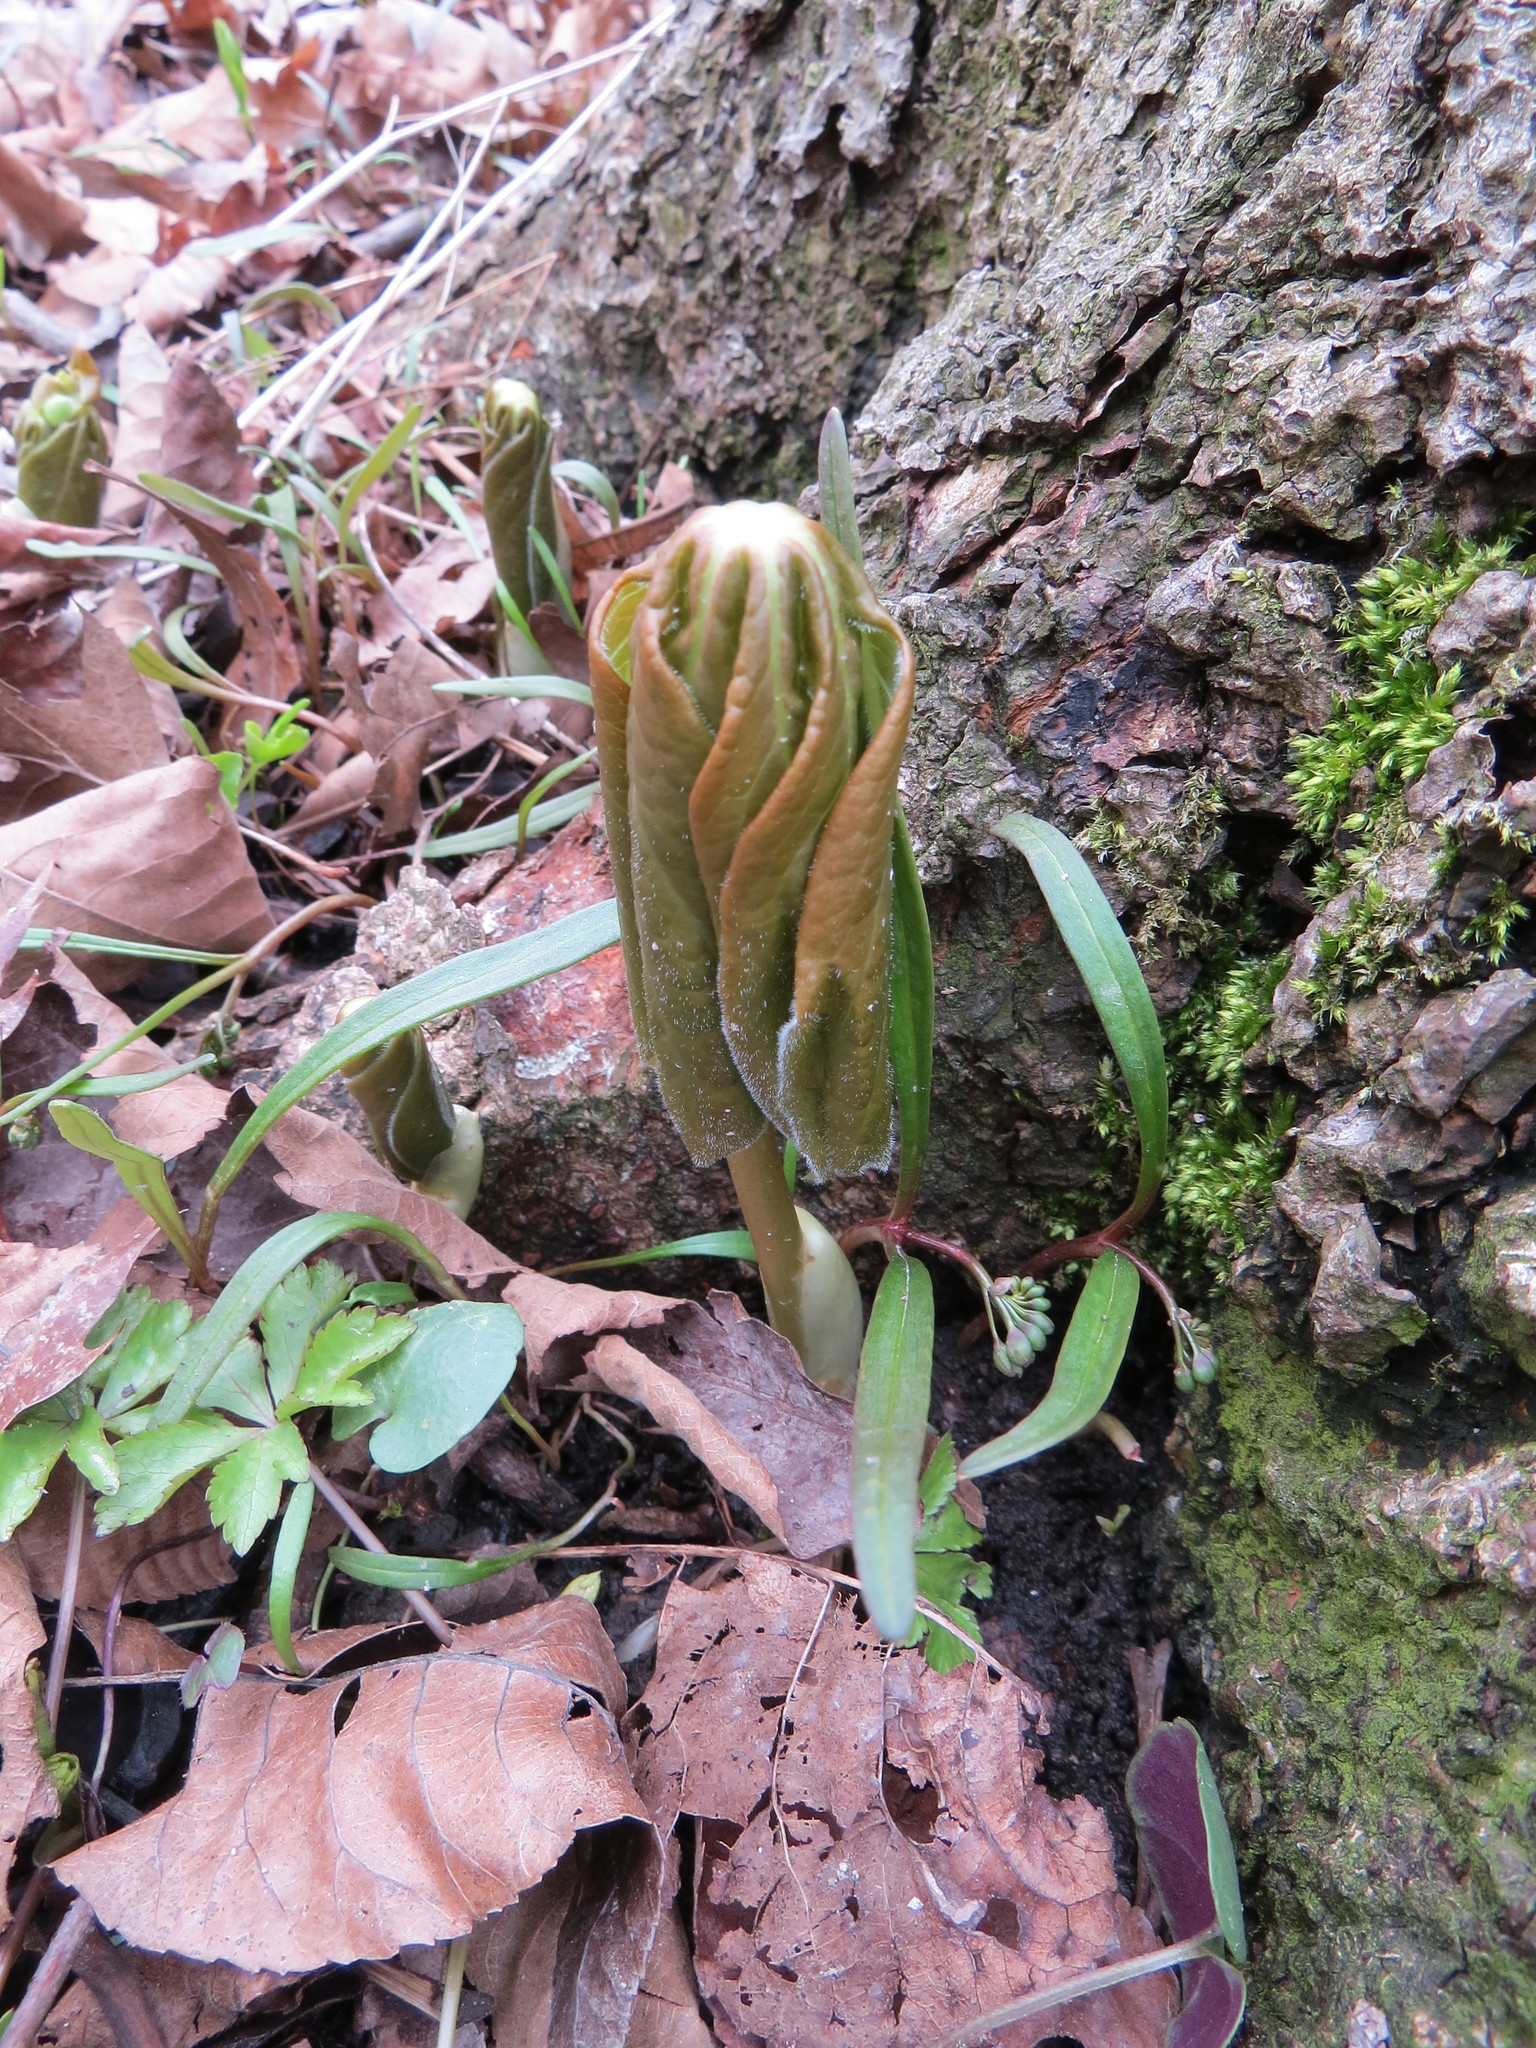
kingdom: Plantae
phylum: Tracheophyta
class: Magnoliopsida
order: Ranunculales
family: Berberidaceae
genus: Podophyllum
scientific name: Podophyllum peltatum
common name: Wild mandrake
